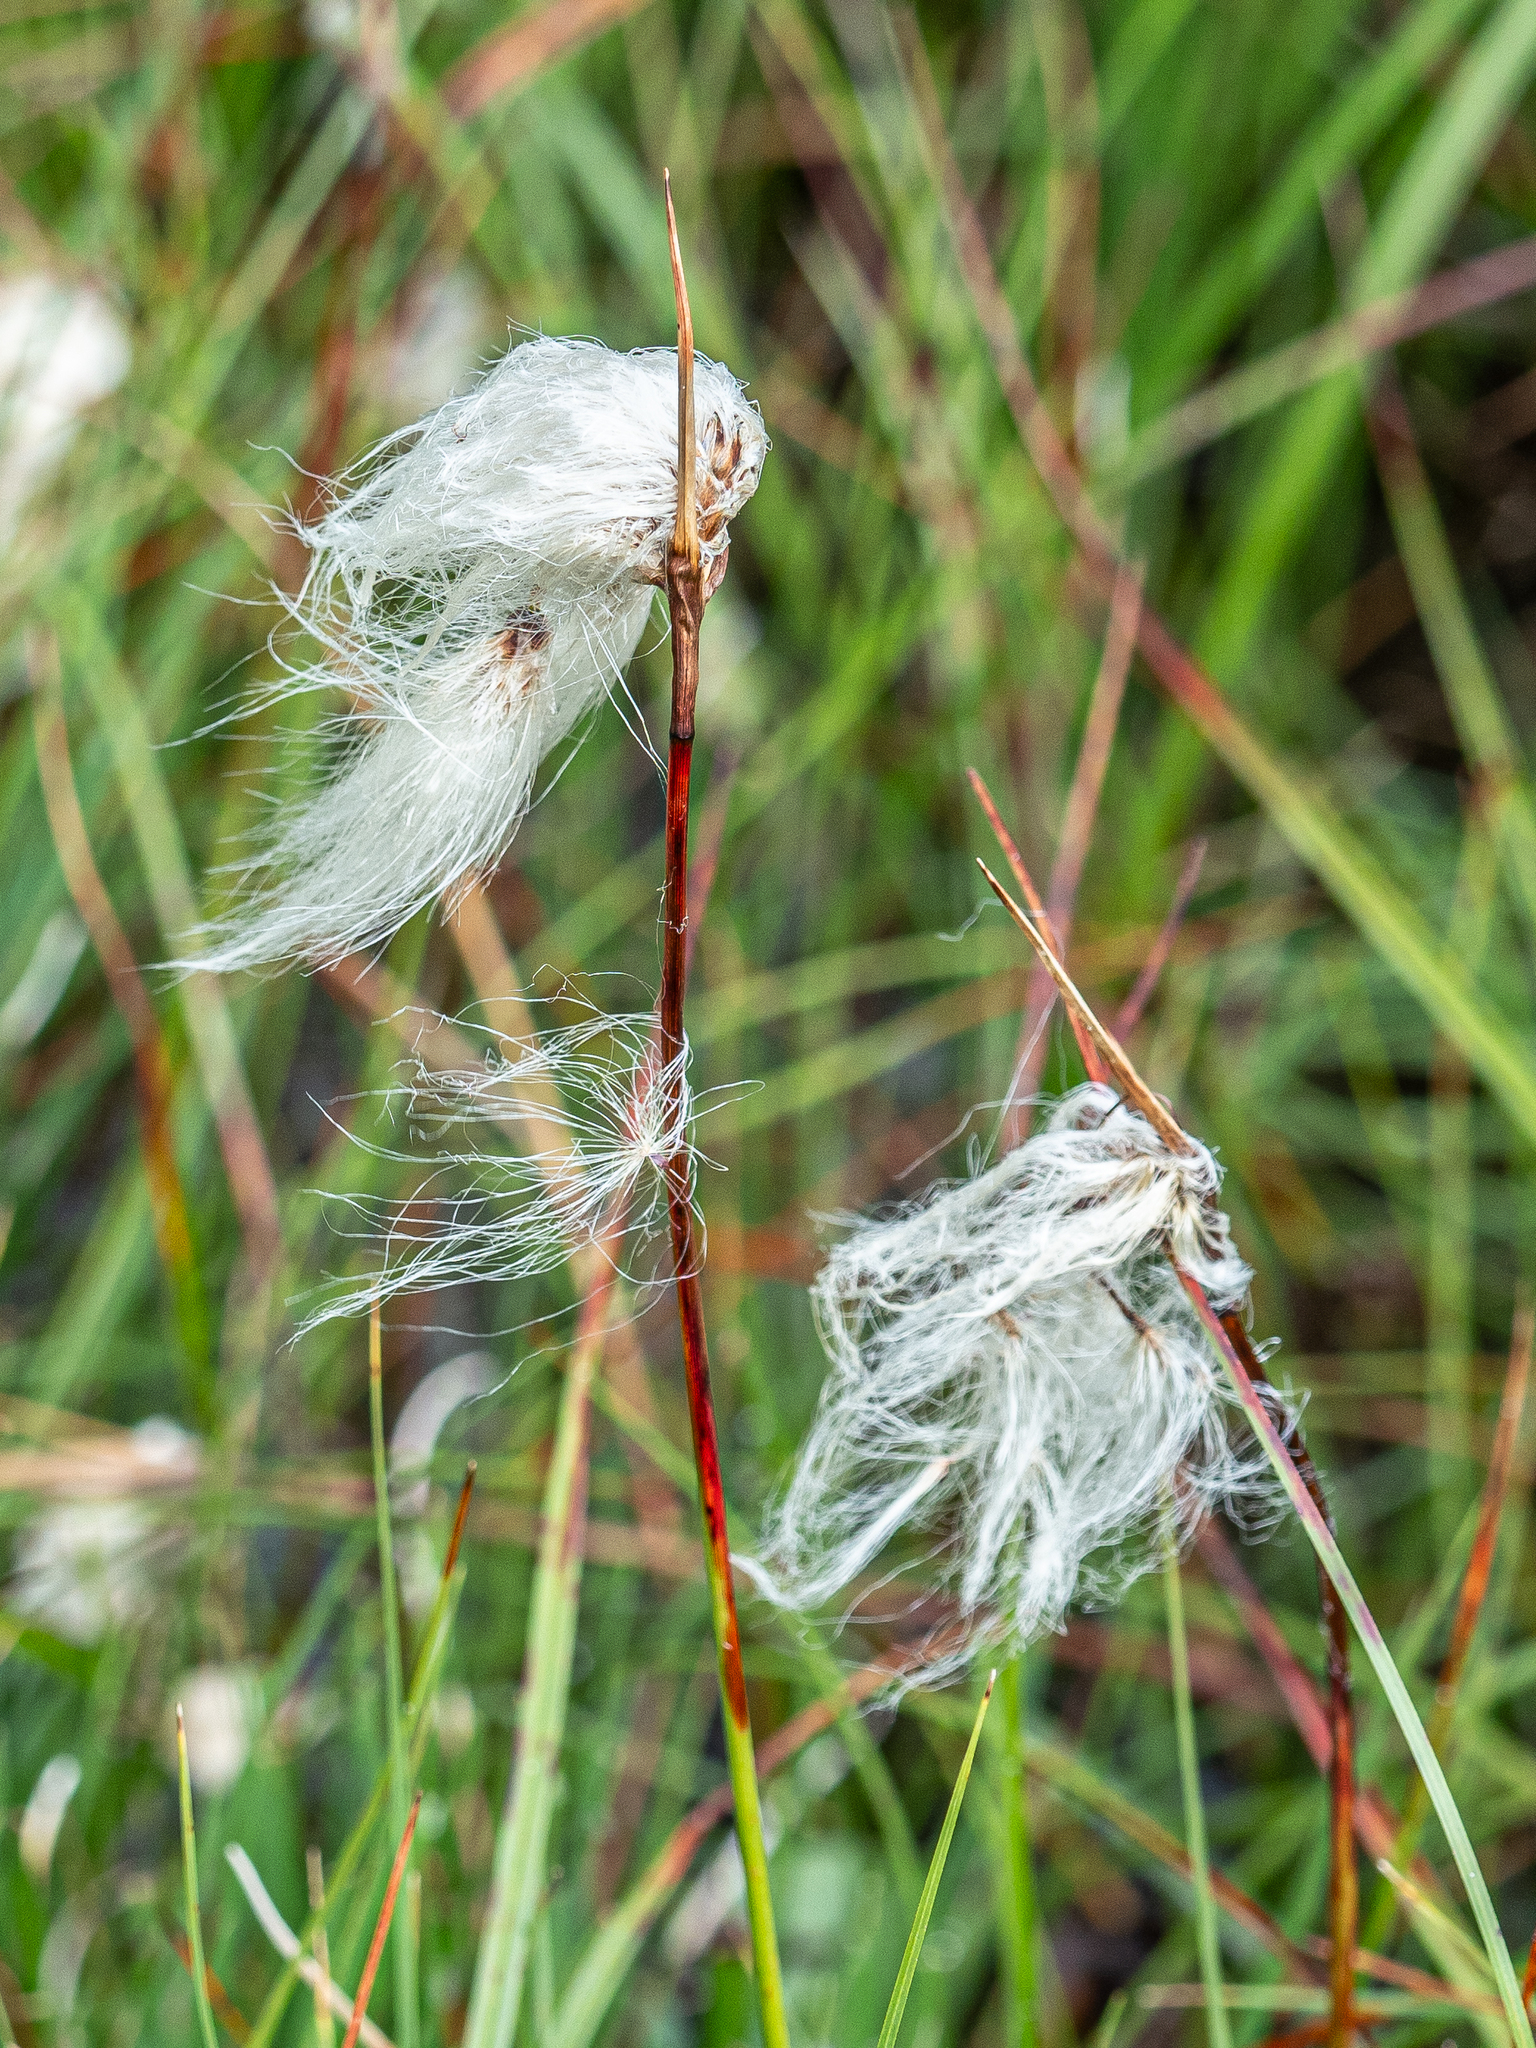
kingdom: Plantae
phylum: Tracheophyta
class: Liliopsida
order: Poales
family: Cyperaceae
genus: Eriophorum
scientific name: Eriophorum angustifolium
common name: Common cottongrass
